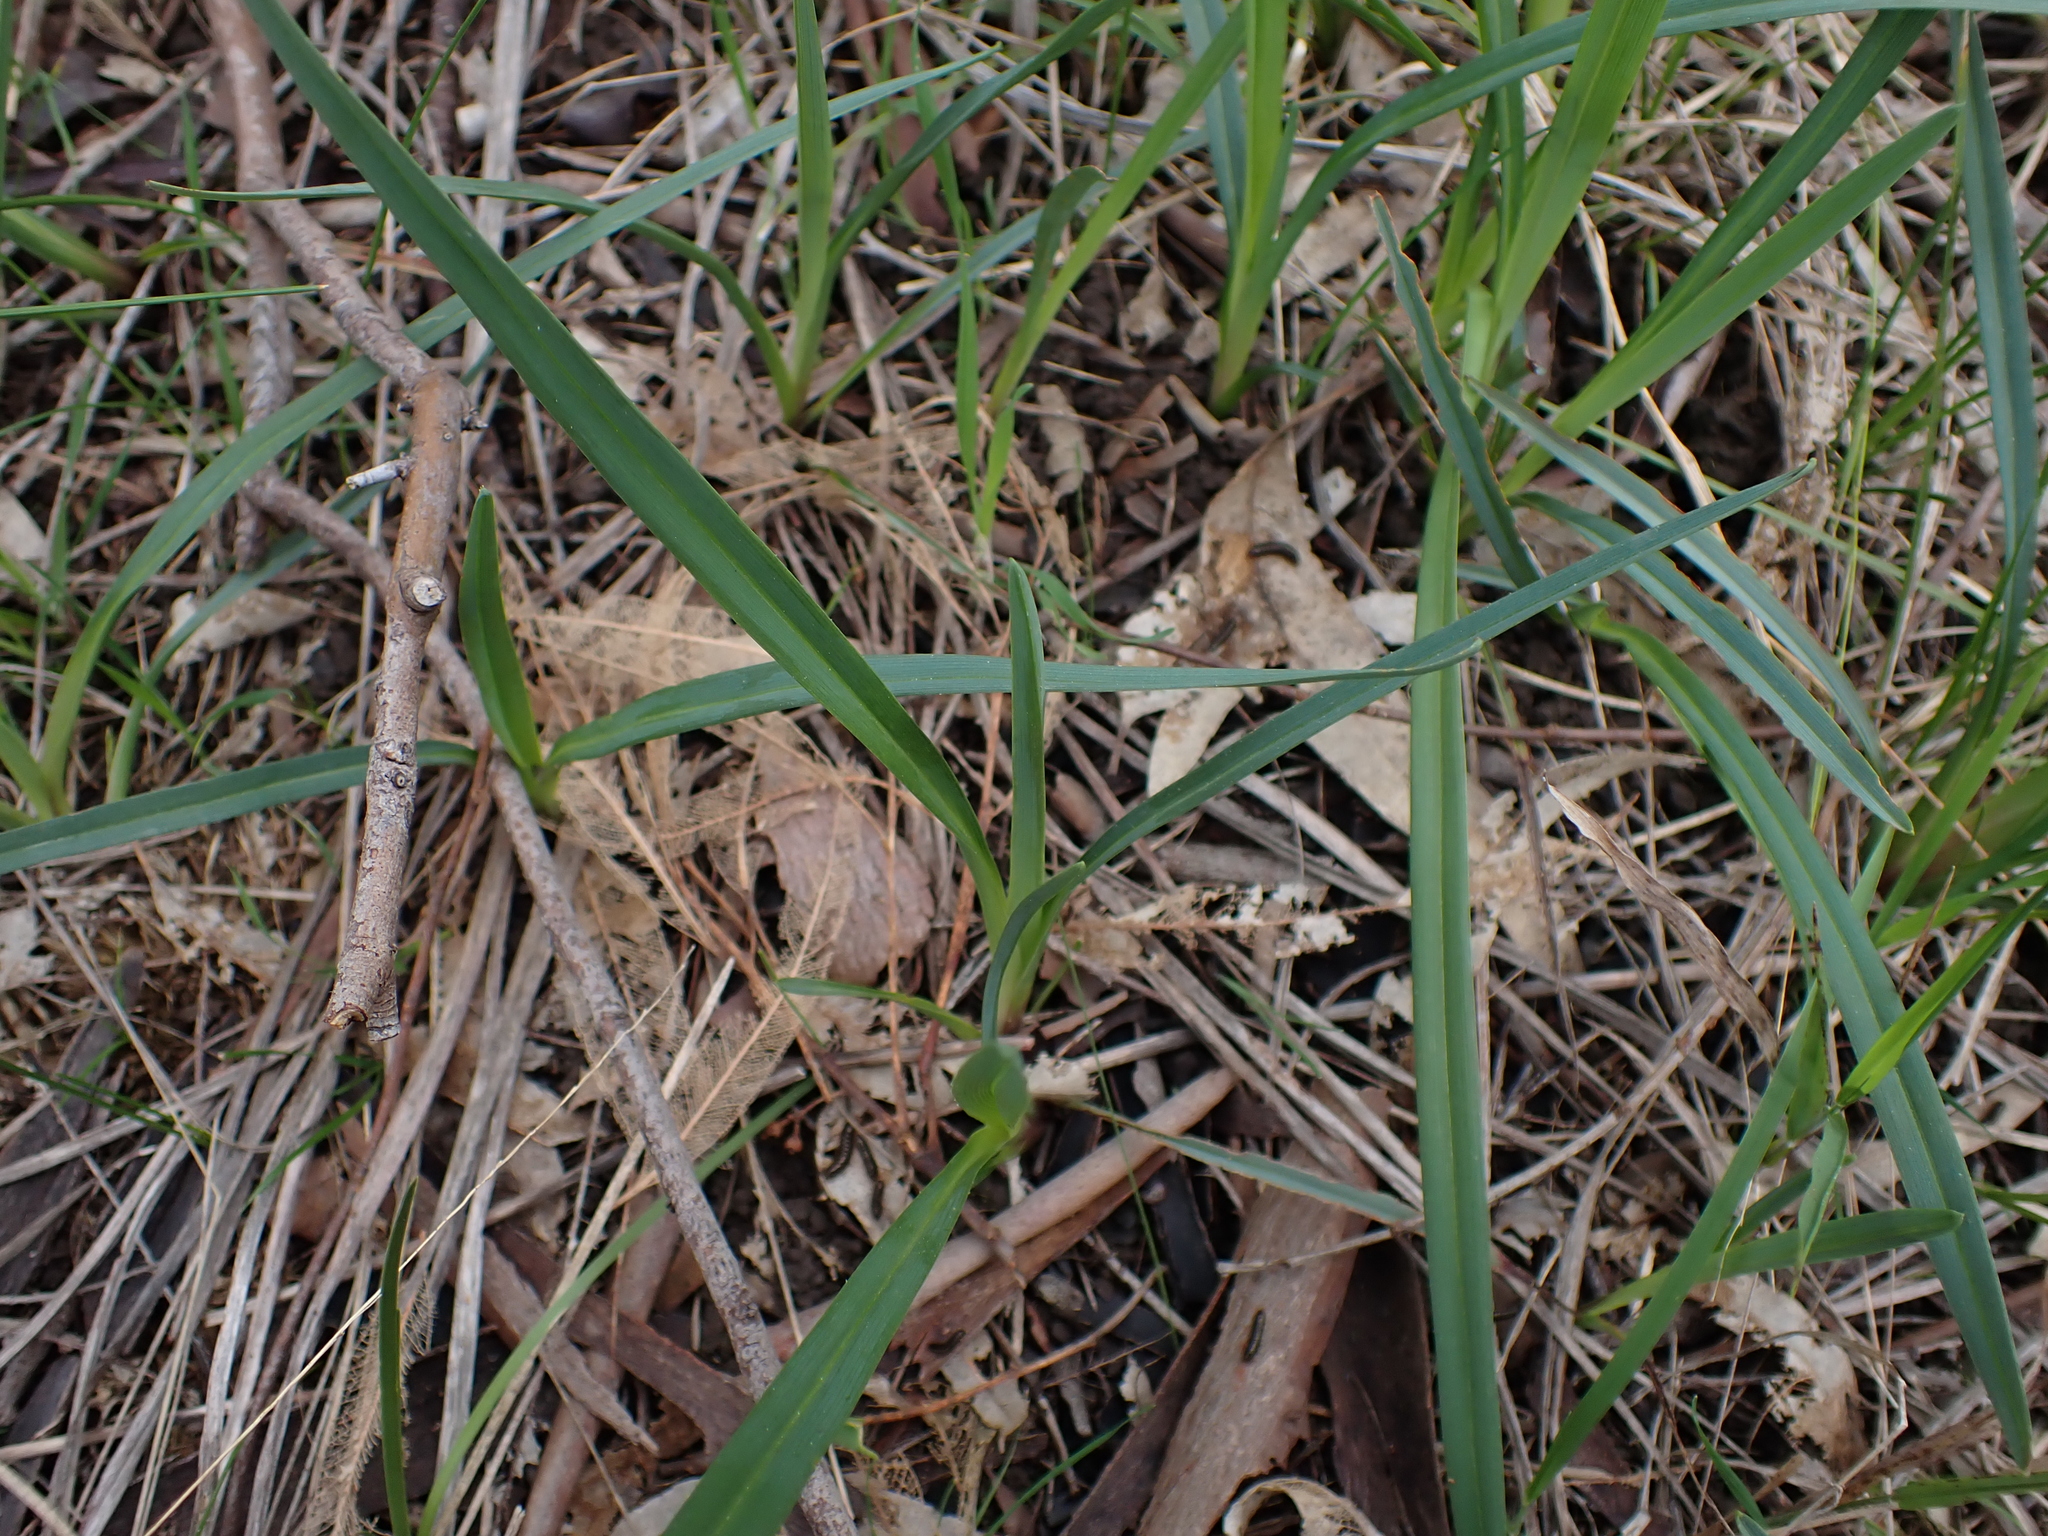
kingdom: Plantae
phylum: Tracheophyta
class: Liliopsida
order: Asparagales
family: Asphodelaceae
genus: Dianella
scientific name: Dianella amoena
